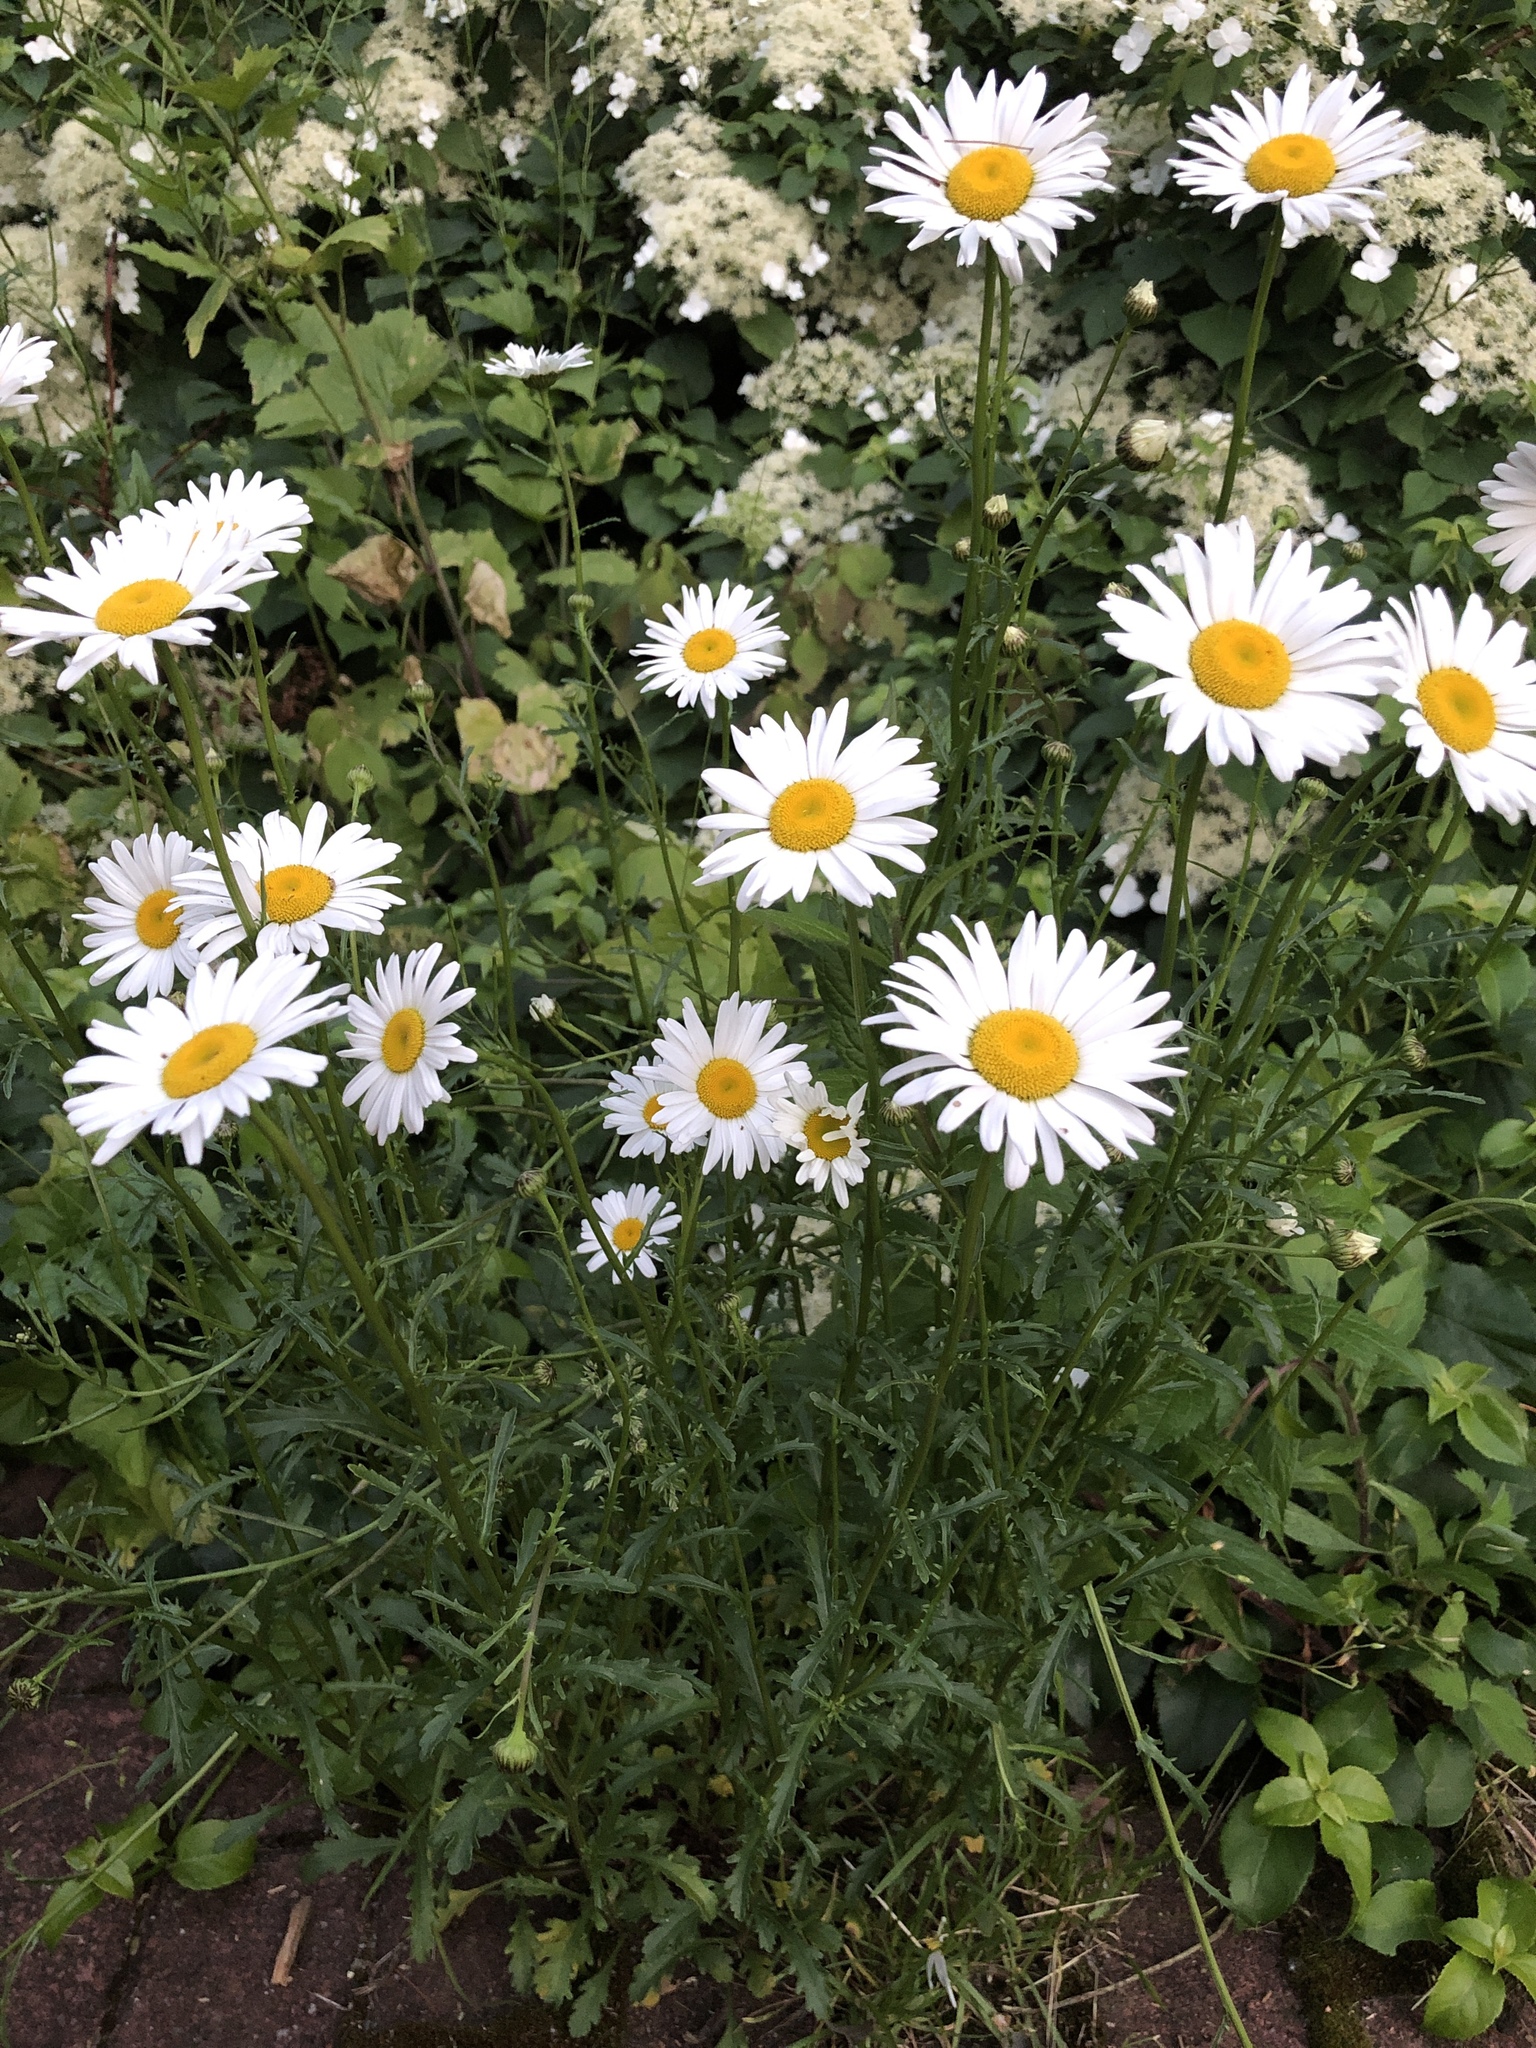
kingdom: Plantae
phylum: Tracheophyta
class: Magnoliopsida
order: Asterales
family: Asteraceae
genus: Leucanthemum
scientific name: Leucanthemum vulgare
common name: Oxeye daisy
